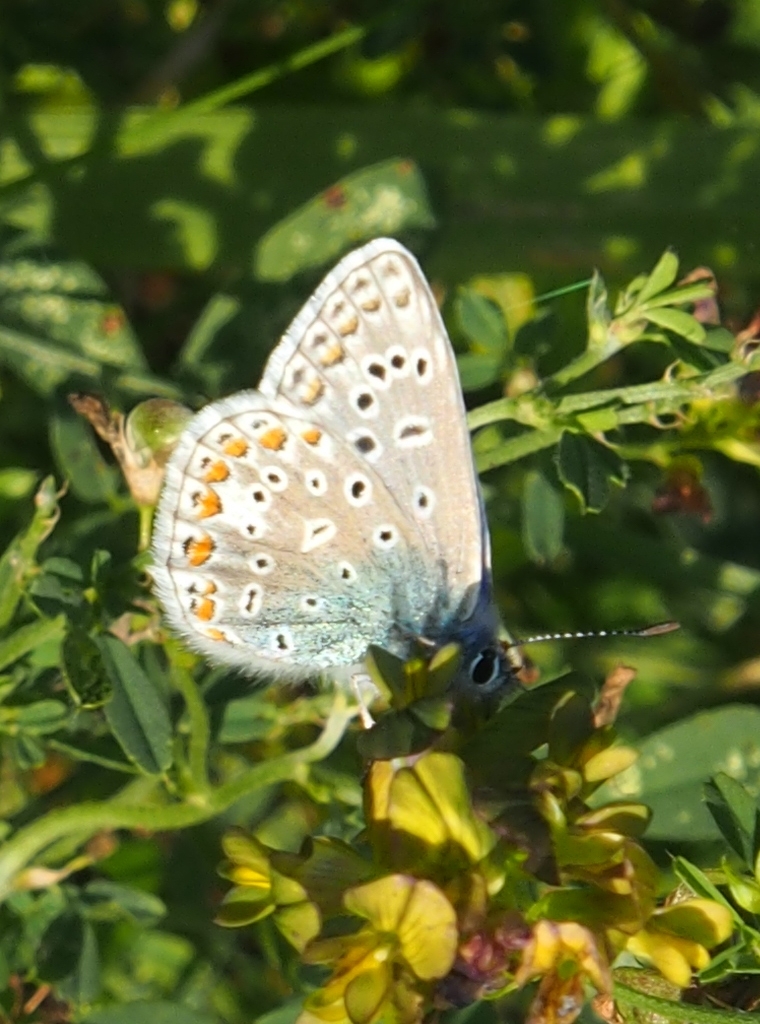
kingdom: Animalia
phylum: Arthropoda
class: Insecta
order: Lepidoptera
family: Lycaenidae
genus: Polyommatus
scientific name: Polyommatus icarus
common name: Common blue
